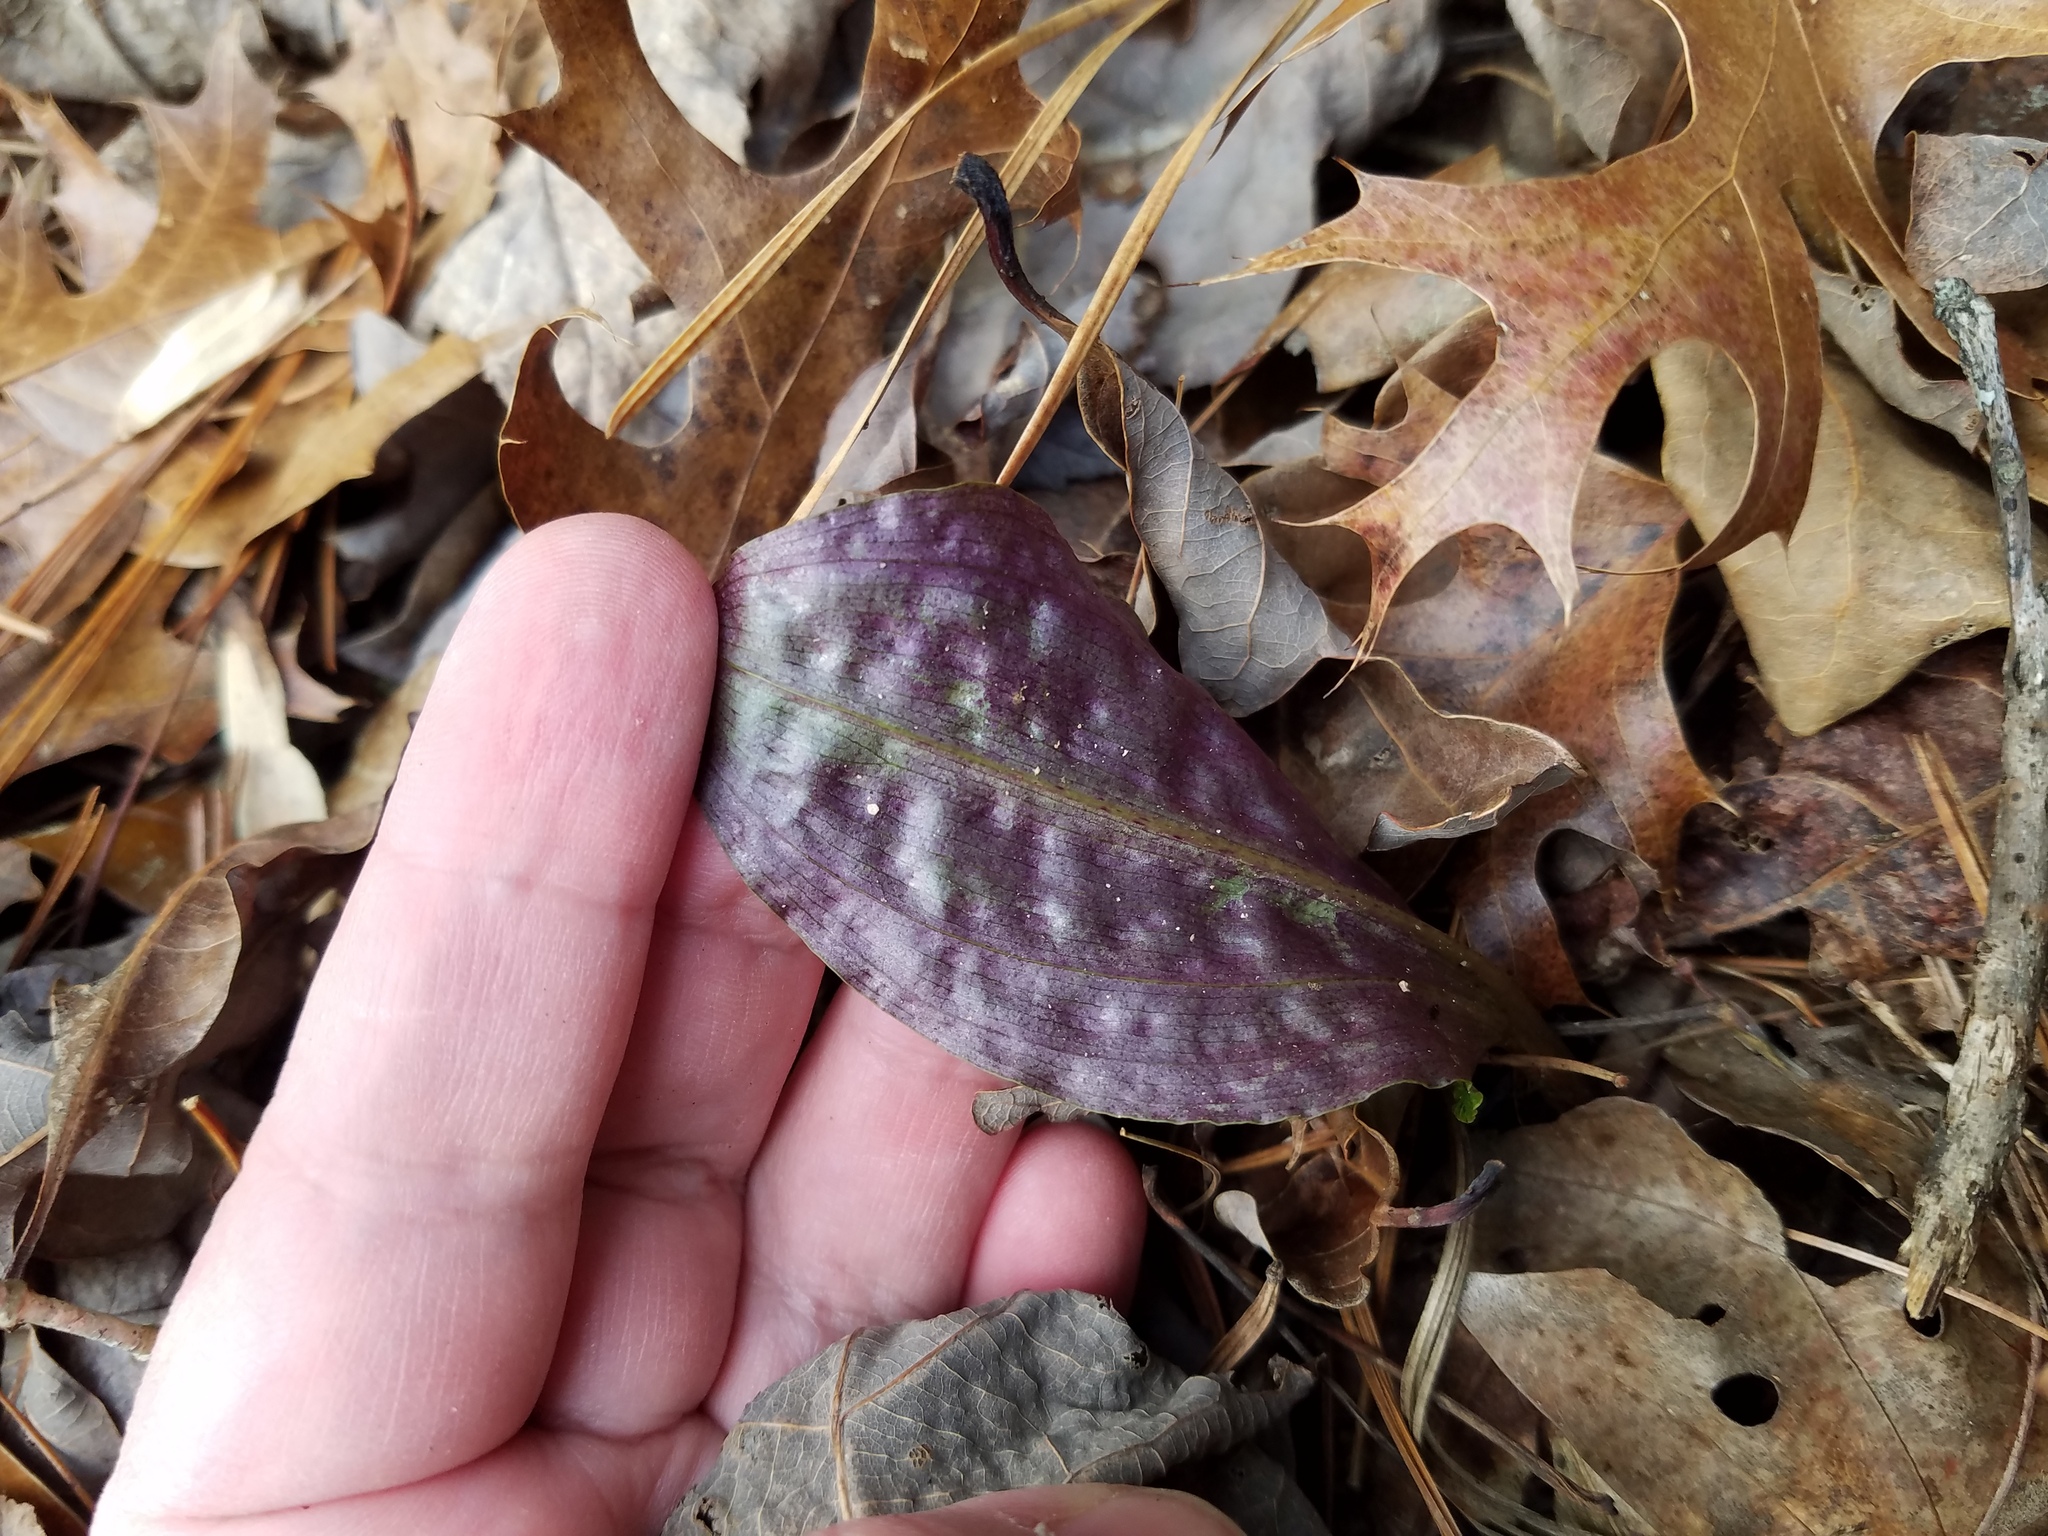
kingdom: Plantae
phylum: Tracheophyta
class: Liliopsida
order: Asparagales
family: Orchidaceae
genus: Tipularia
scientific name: Tipularia discolor
